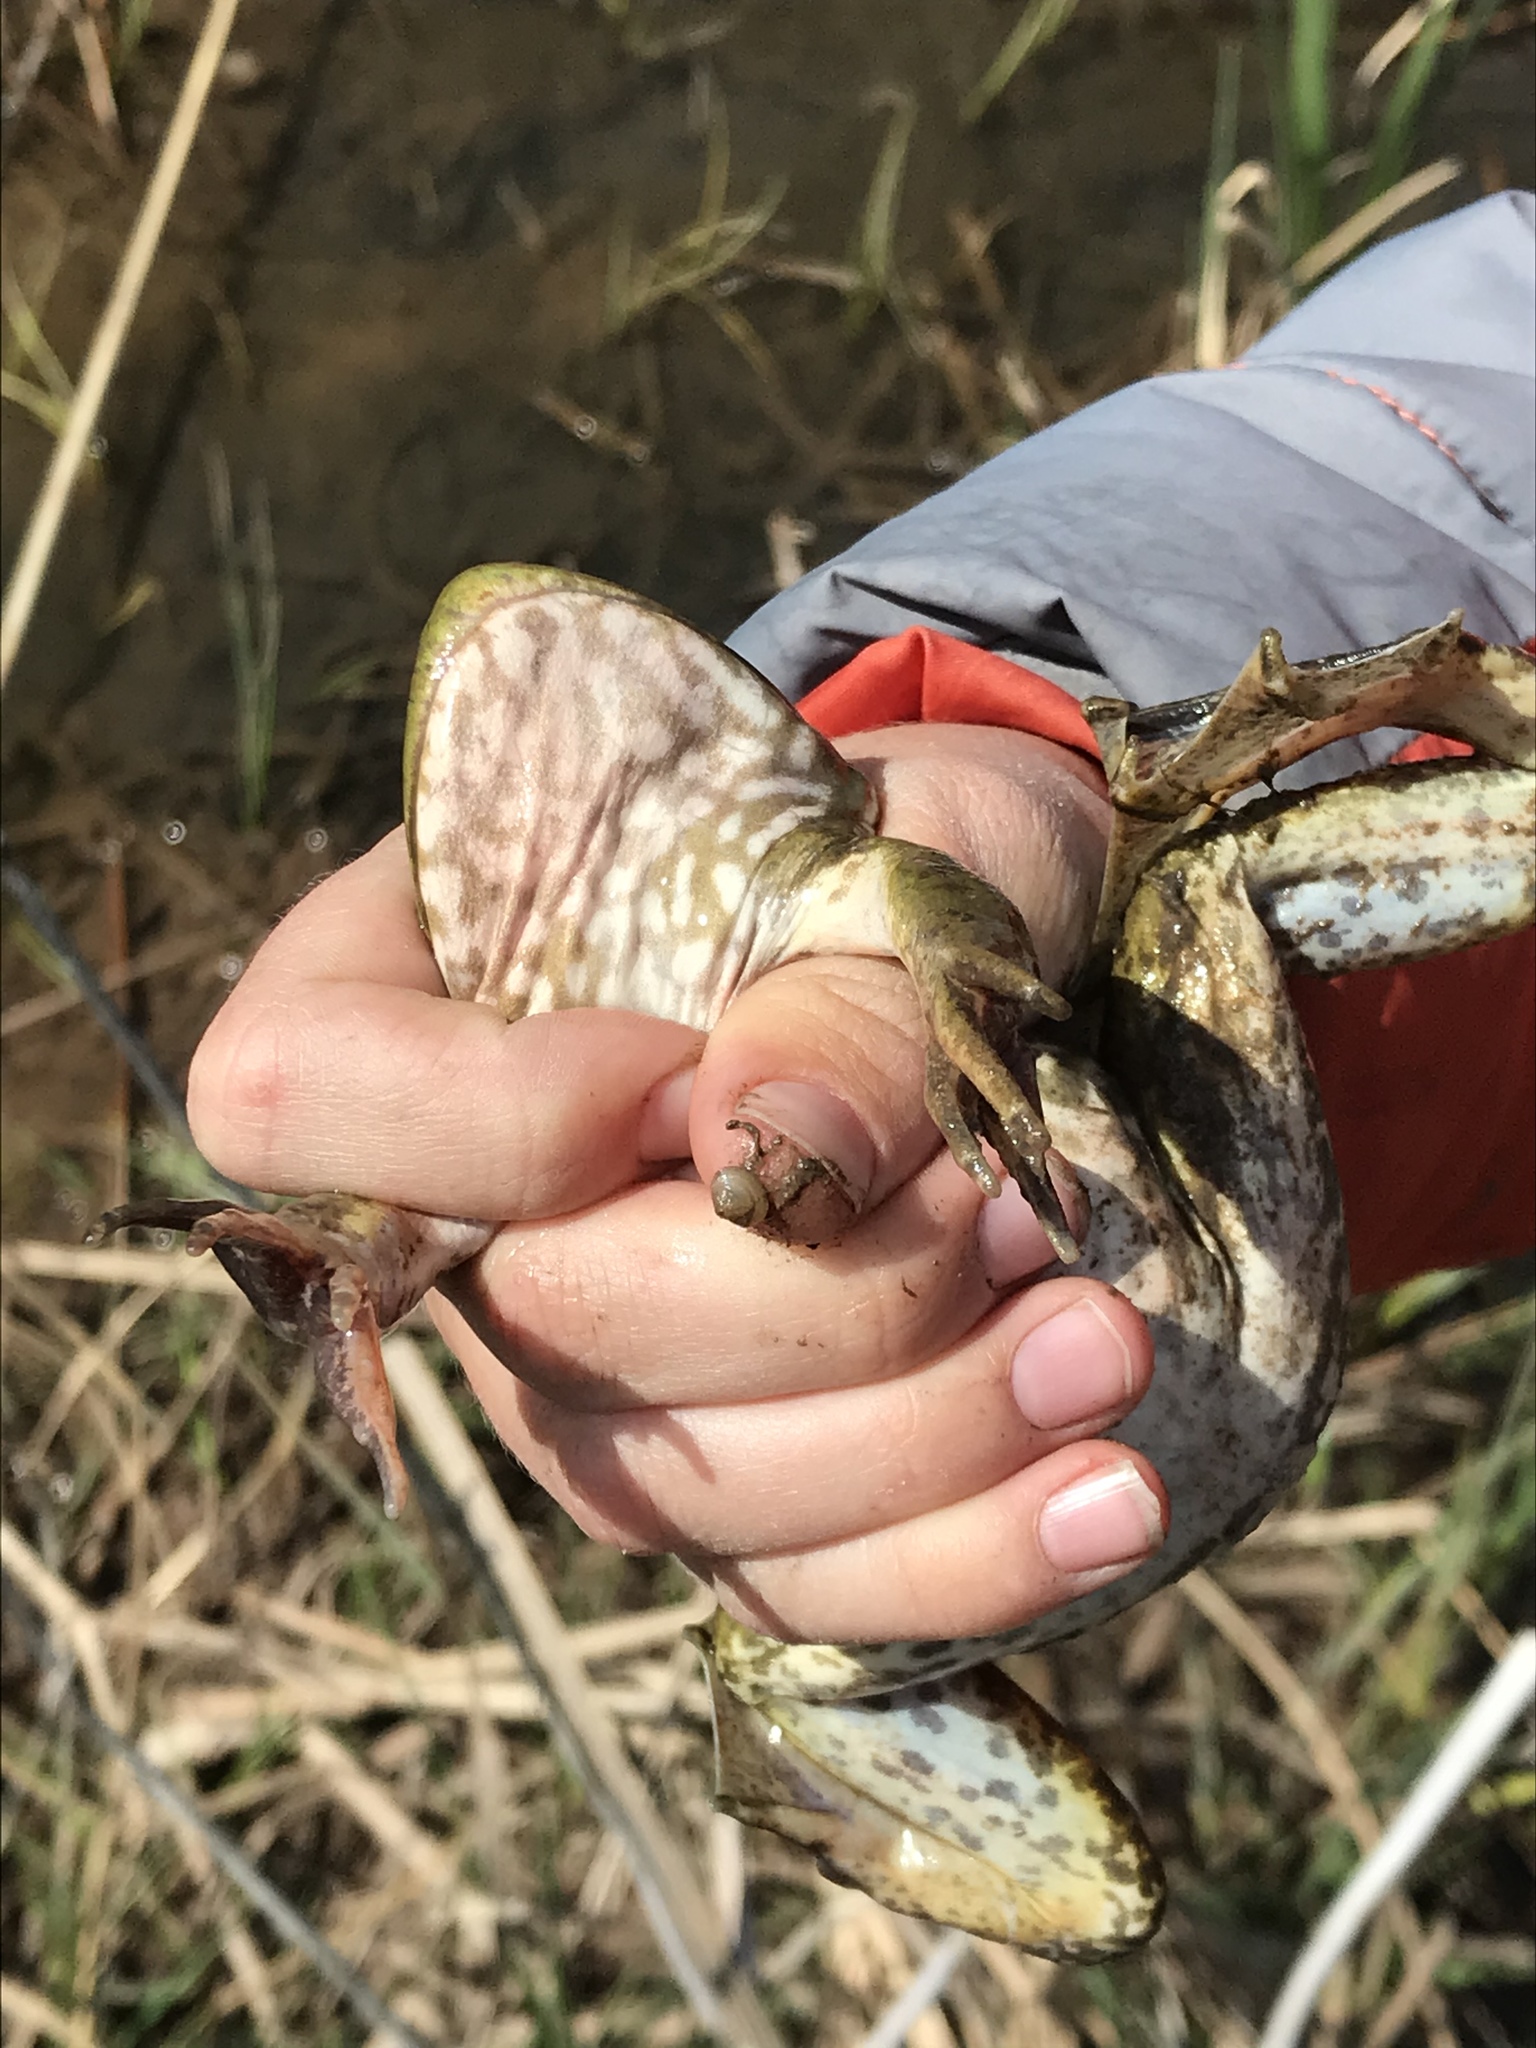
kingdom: Animalia
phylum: Chordata
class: Amphibia
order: Anura
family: Ranidae
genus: Lithobates
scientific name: Lithobates catesbeianus
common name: American bullfrog
